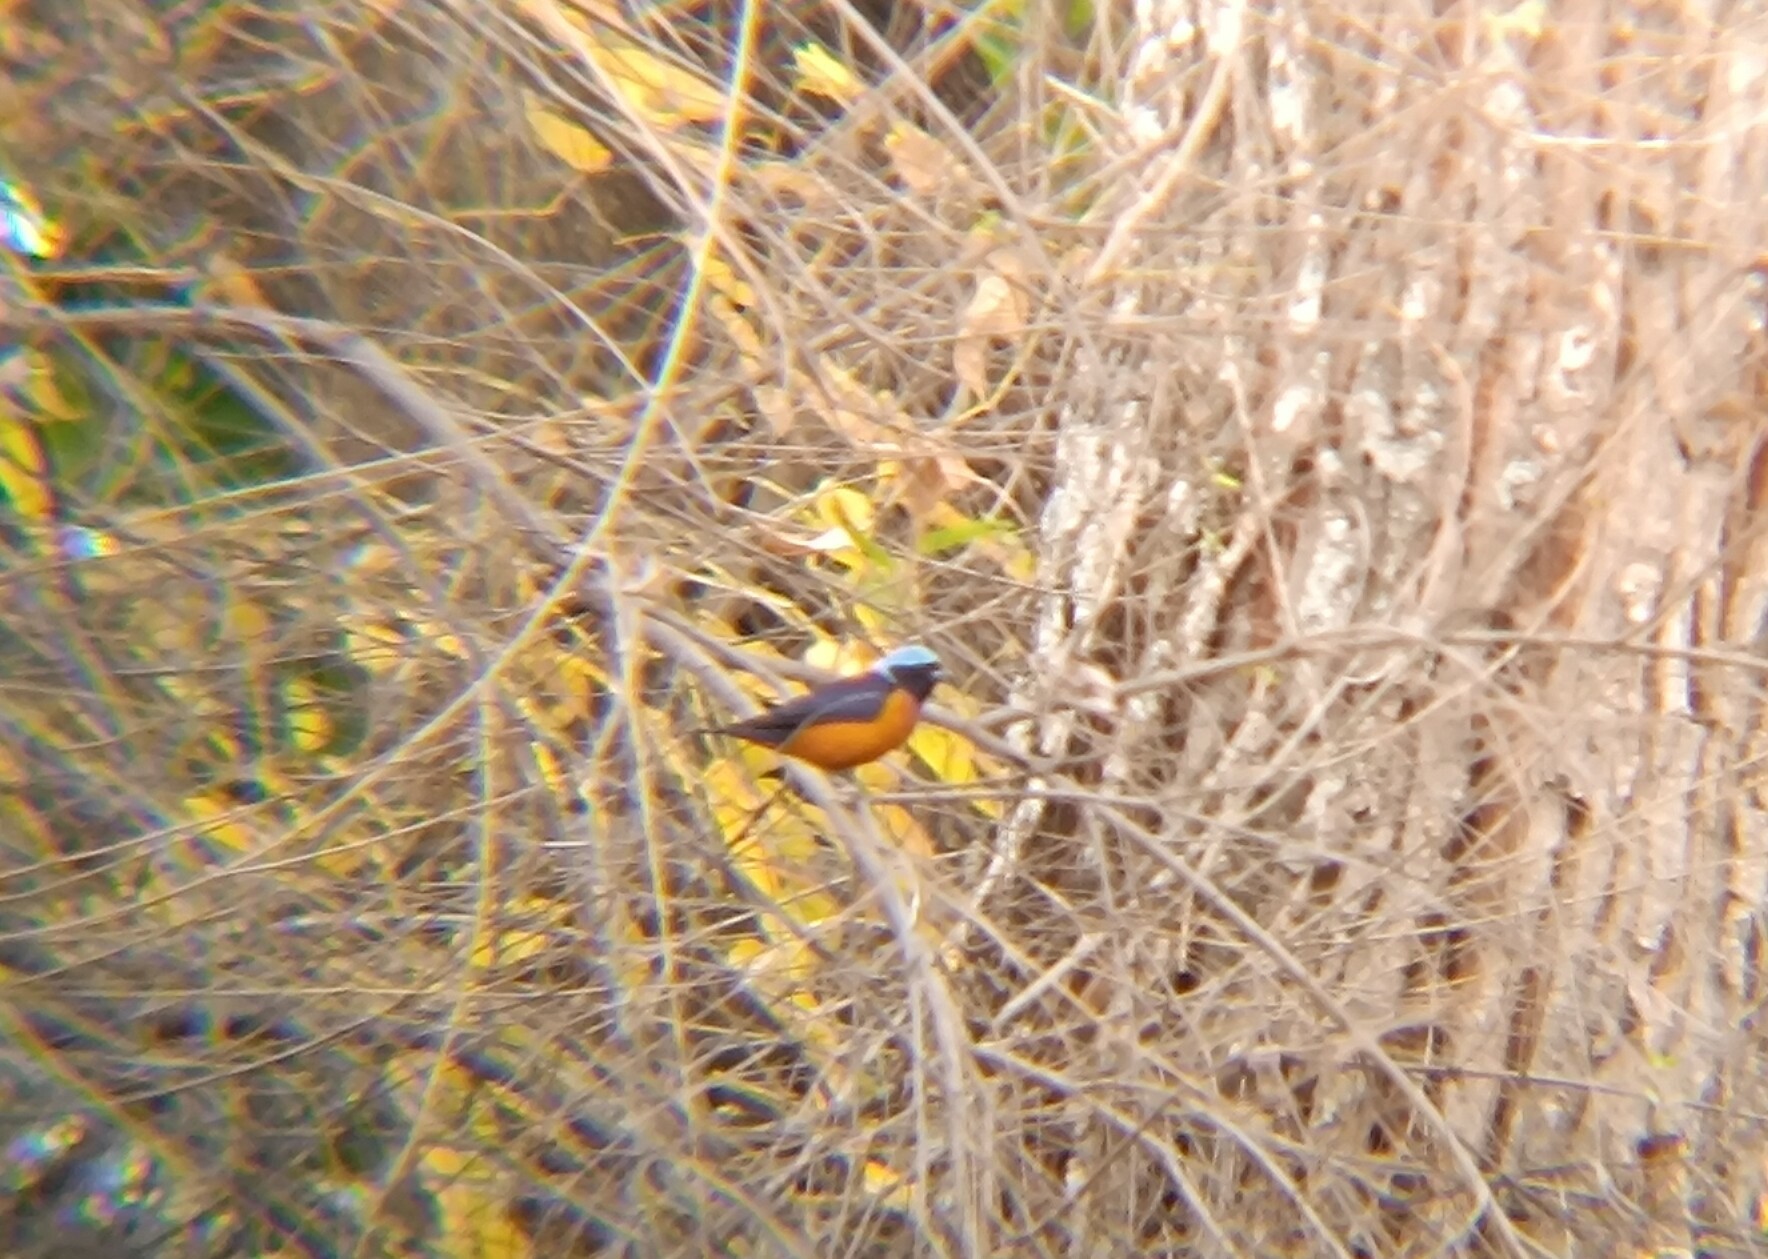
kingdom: Animalia
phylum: Chordata
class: Aves
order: Passeriformes
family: Fringillidae
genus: Euphonia
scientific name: Euphonia elegantissima
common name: Elegant euphonia
